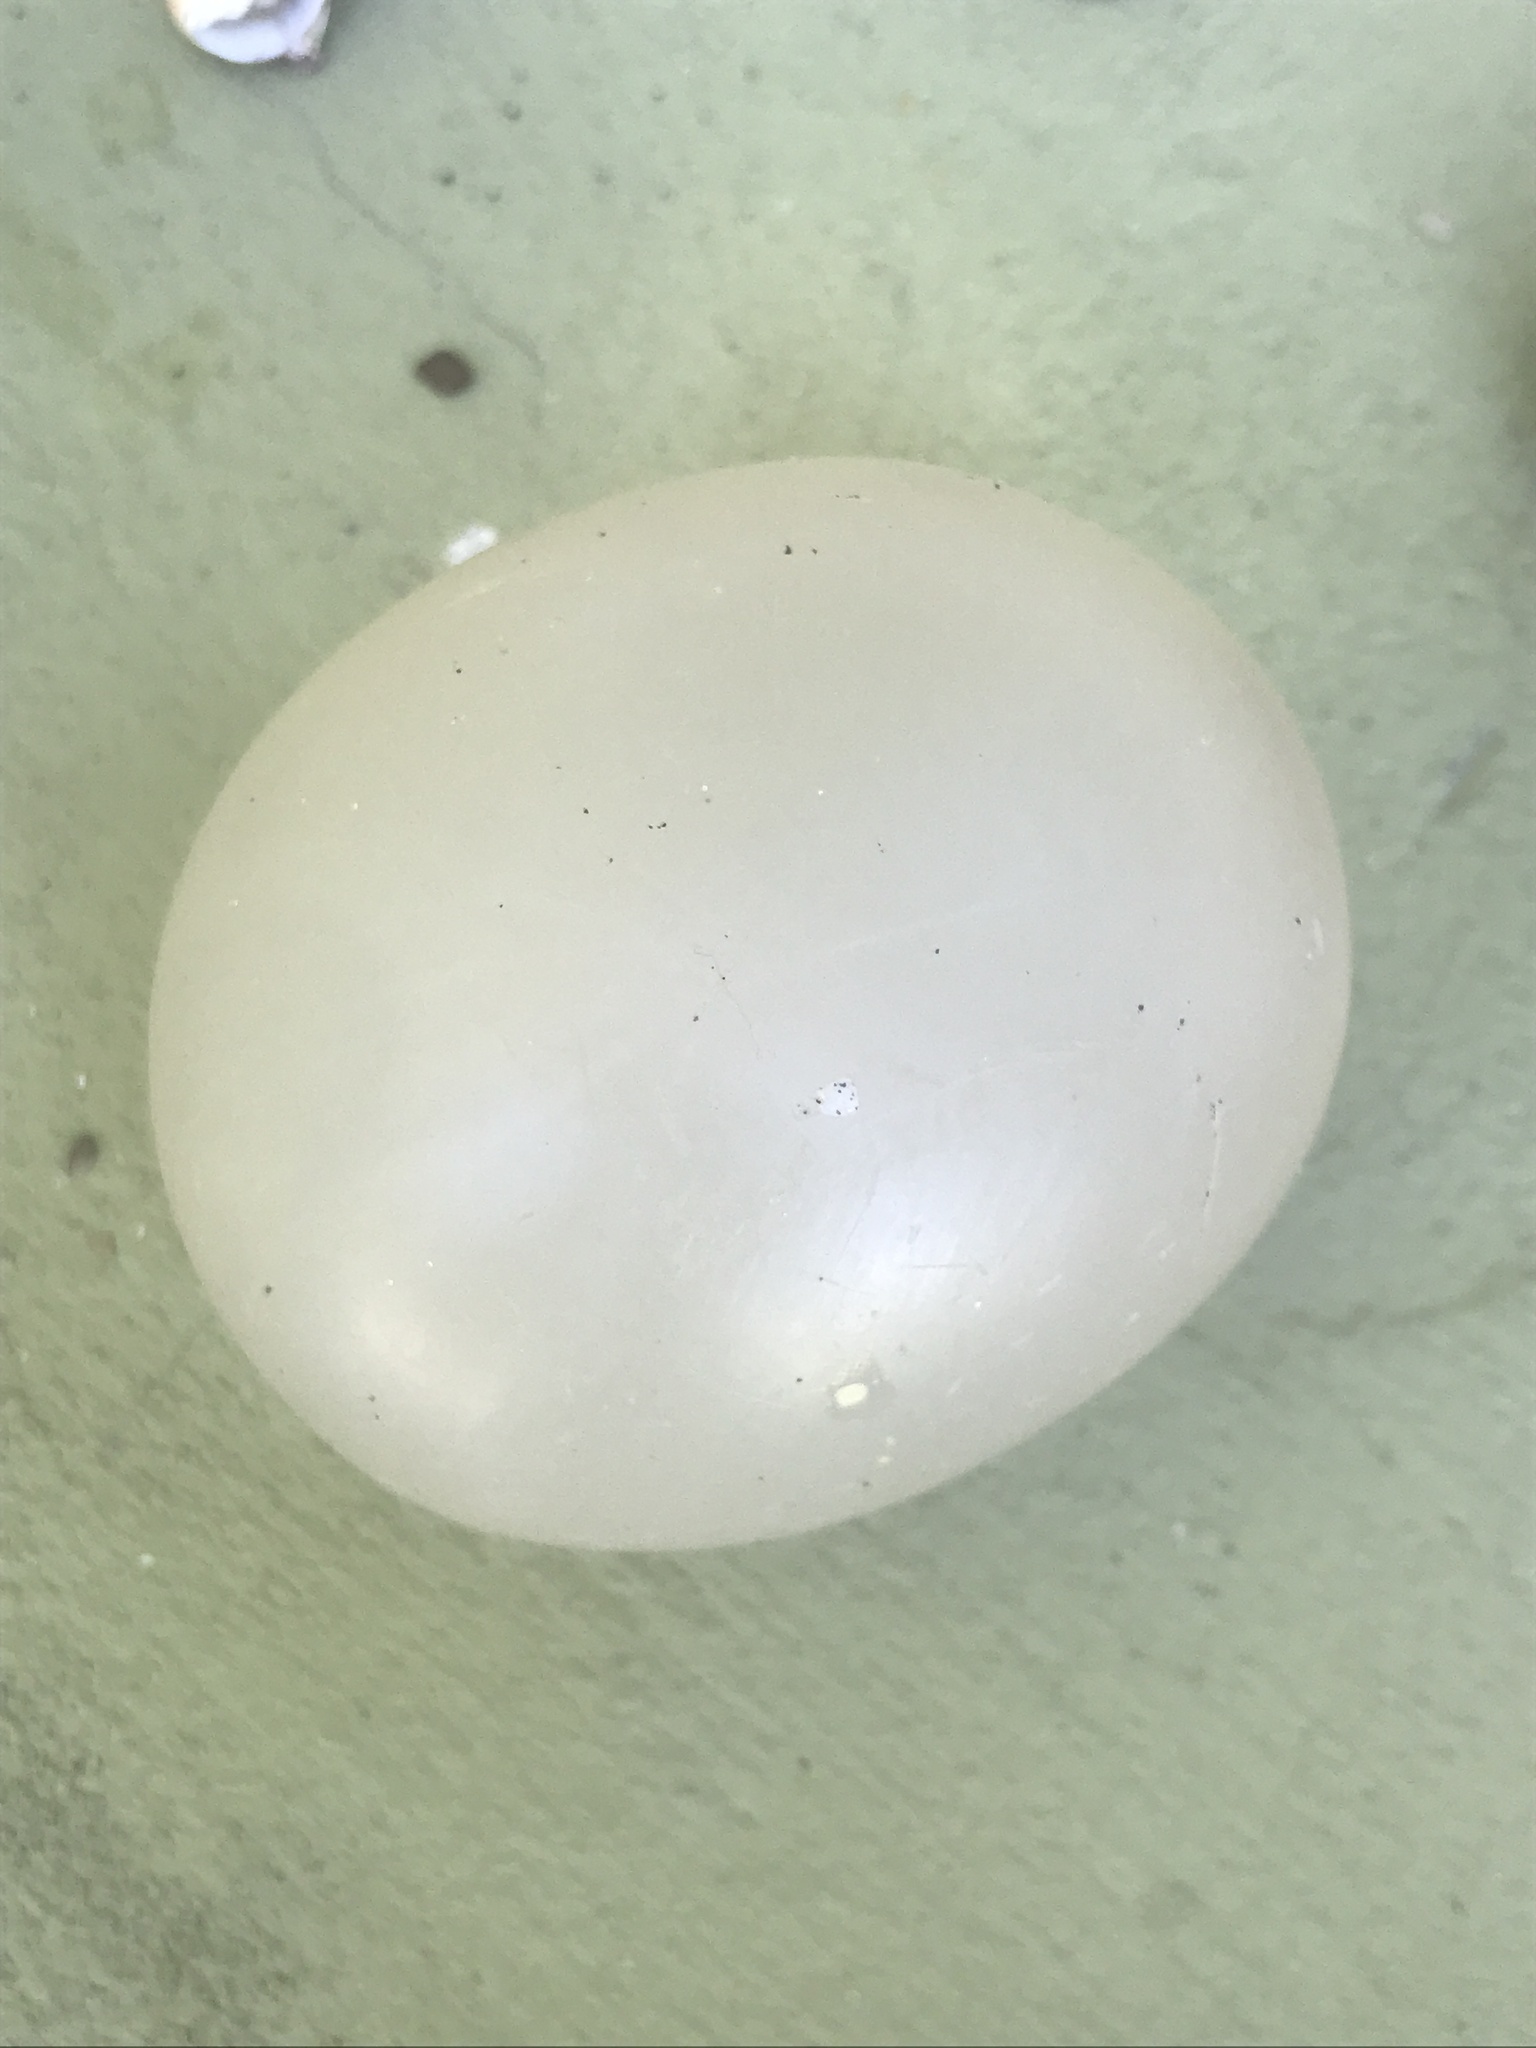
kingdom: Animalia
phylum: Mollusca
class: Gastropoda
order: Neogastropoda
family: Volutidae
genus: Pachycymbiola
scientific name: Pachycymbiola brasiliana
